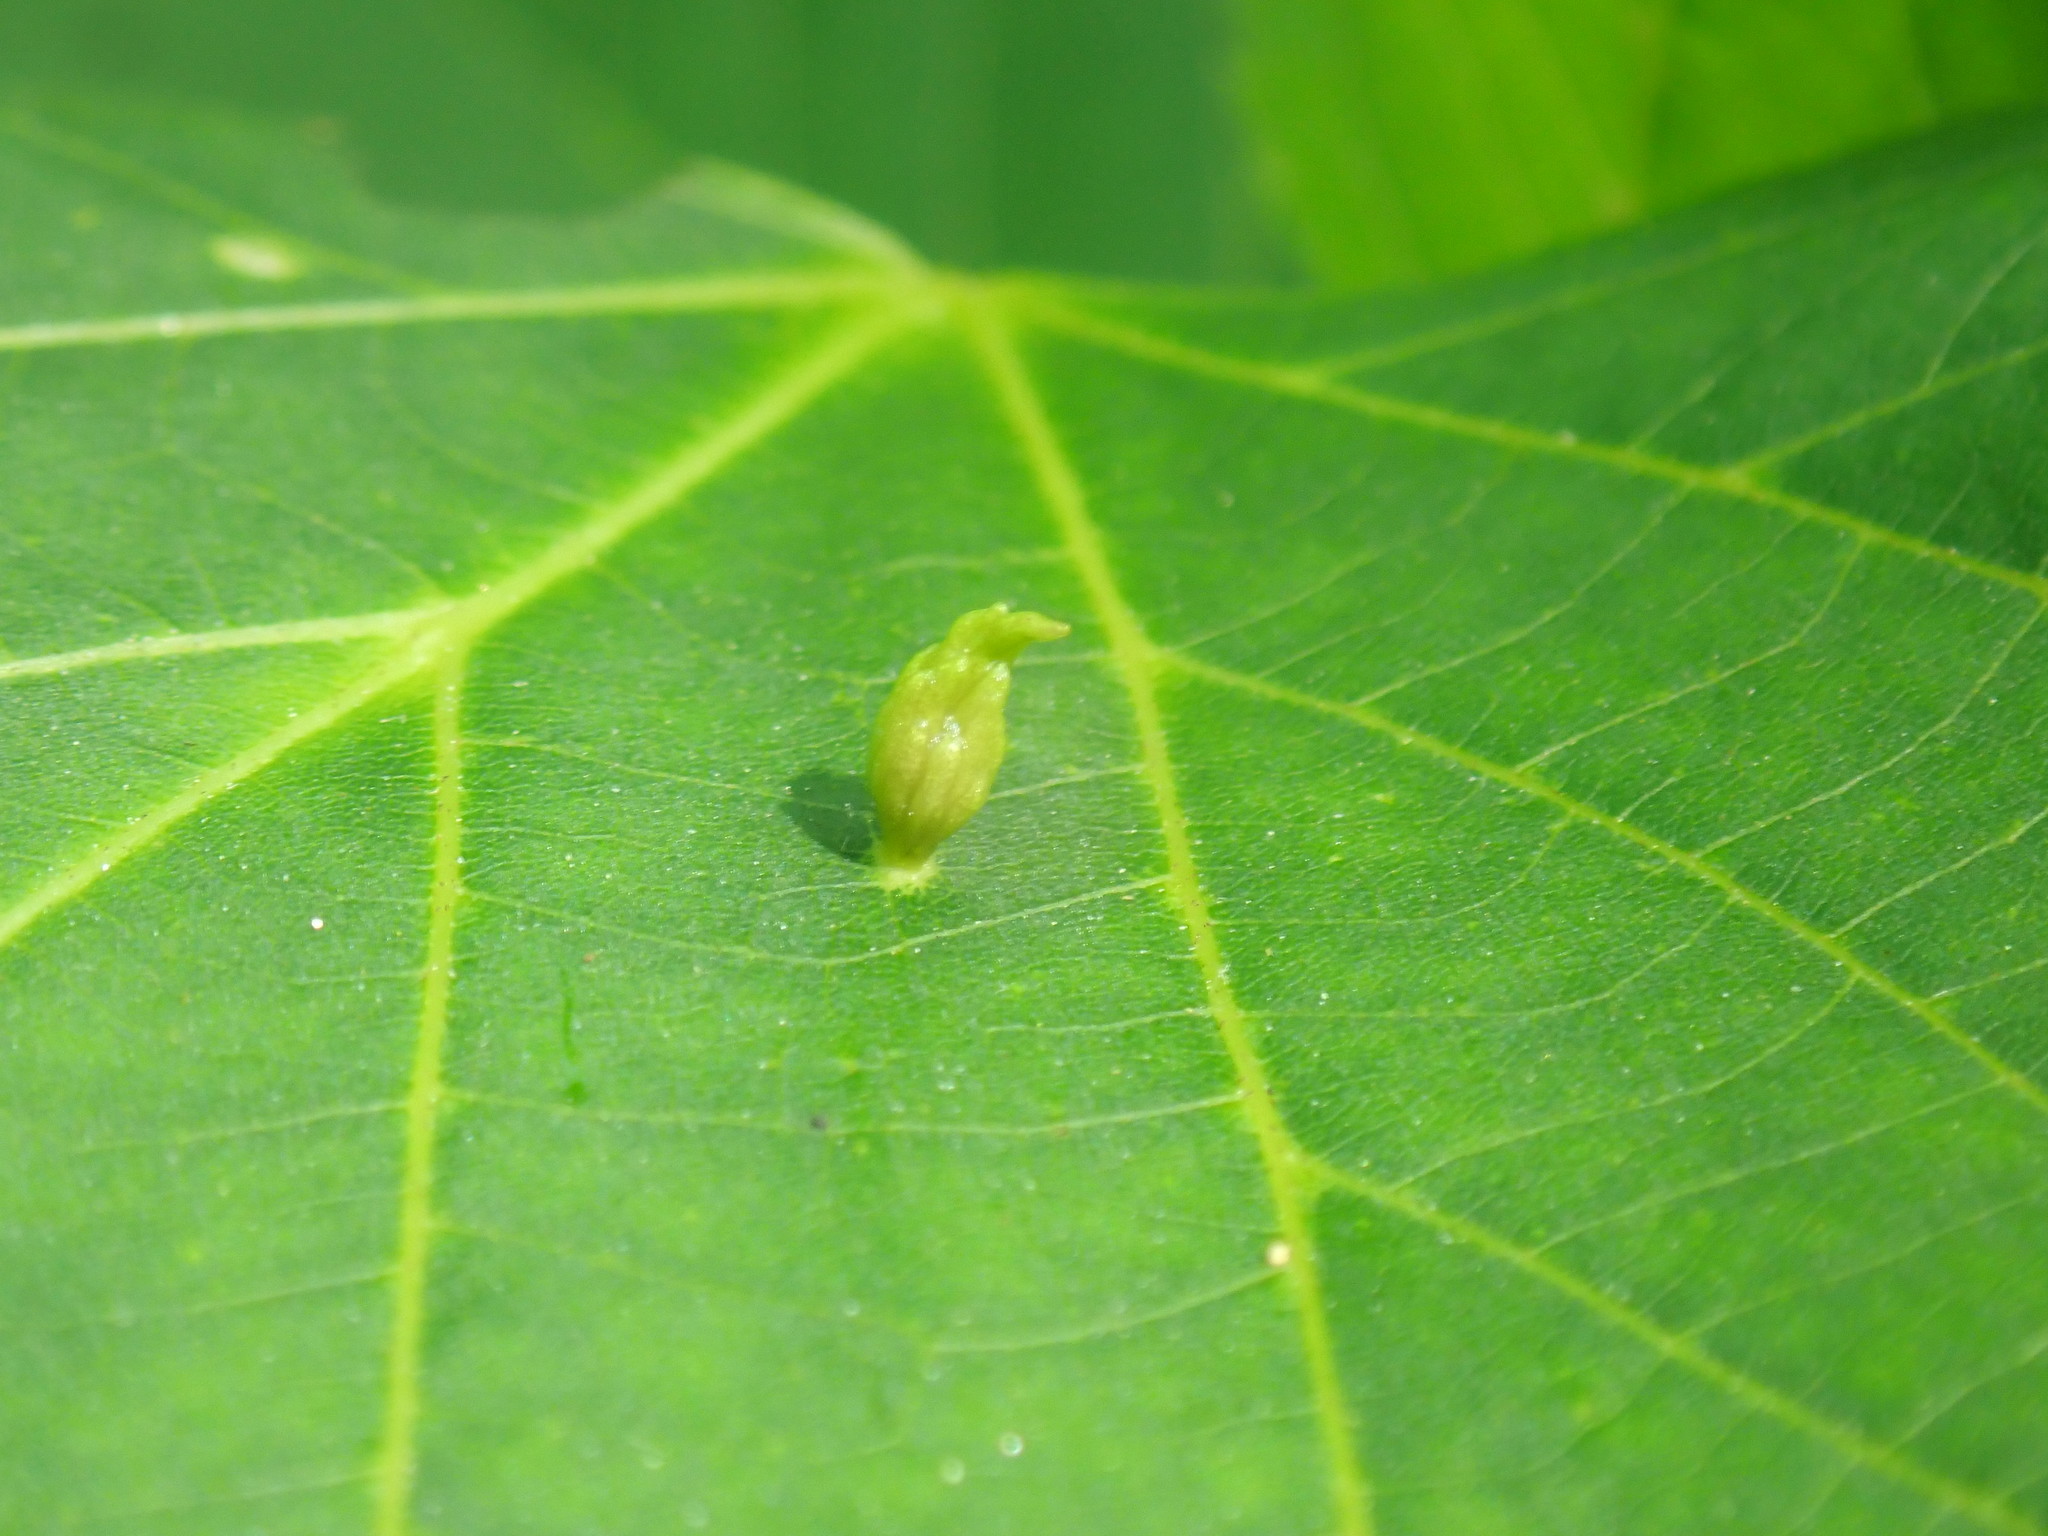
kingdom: Animalia
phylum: Arthropoda
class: Arachnida
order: Trombidiformes
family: Eriophyidae
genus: Eriophyes
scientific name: Eriophyes tiliae
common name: Red nail gall mite
